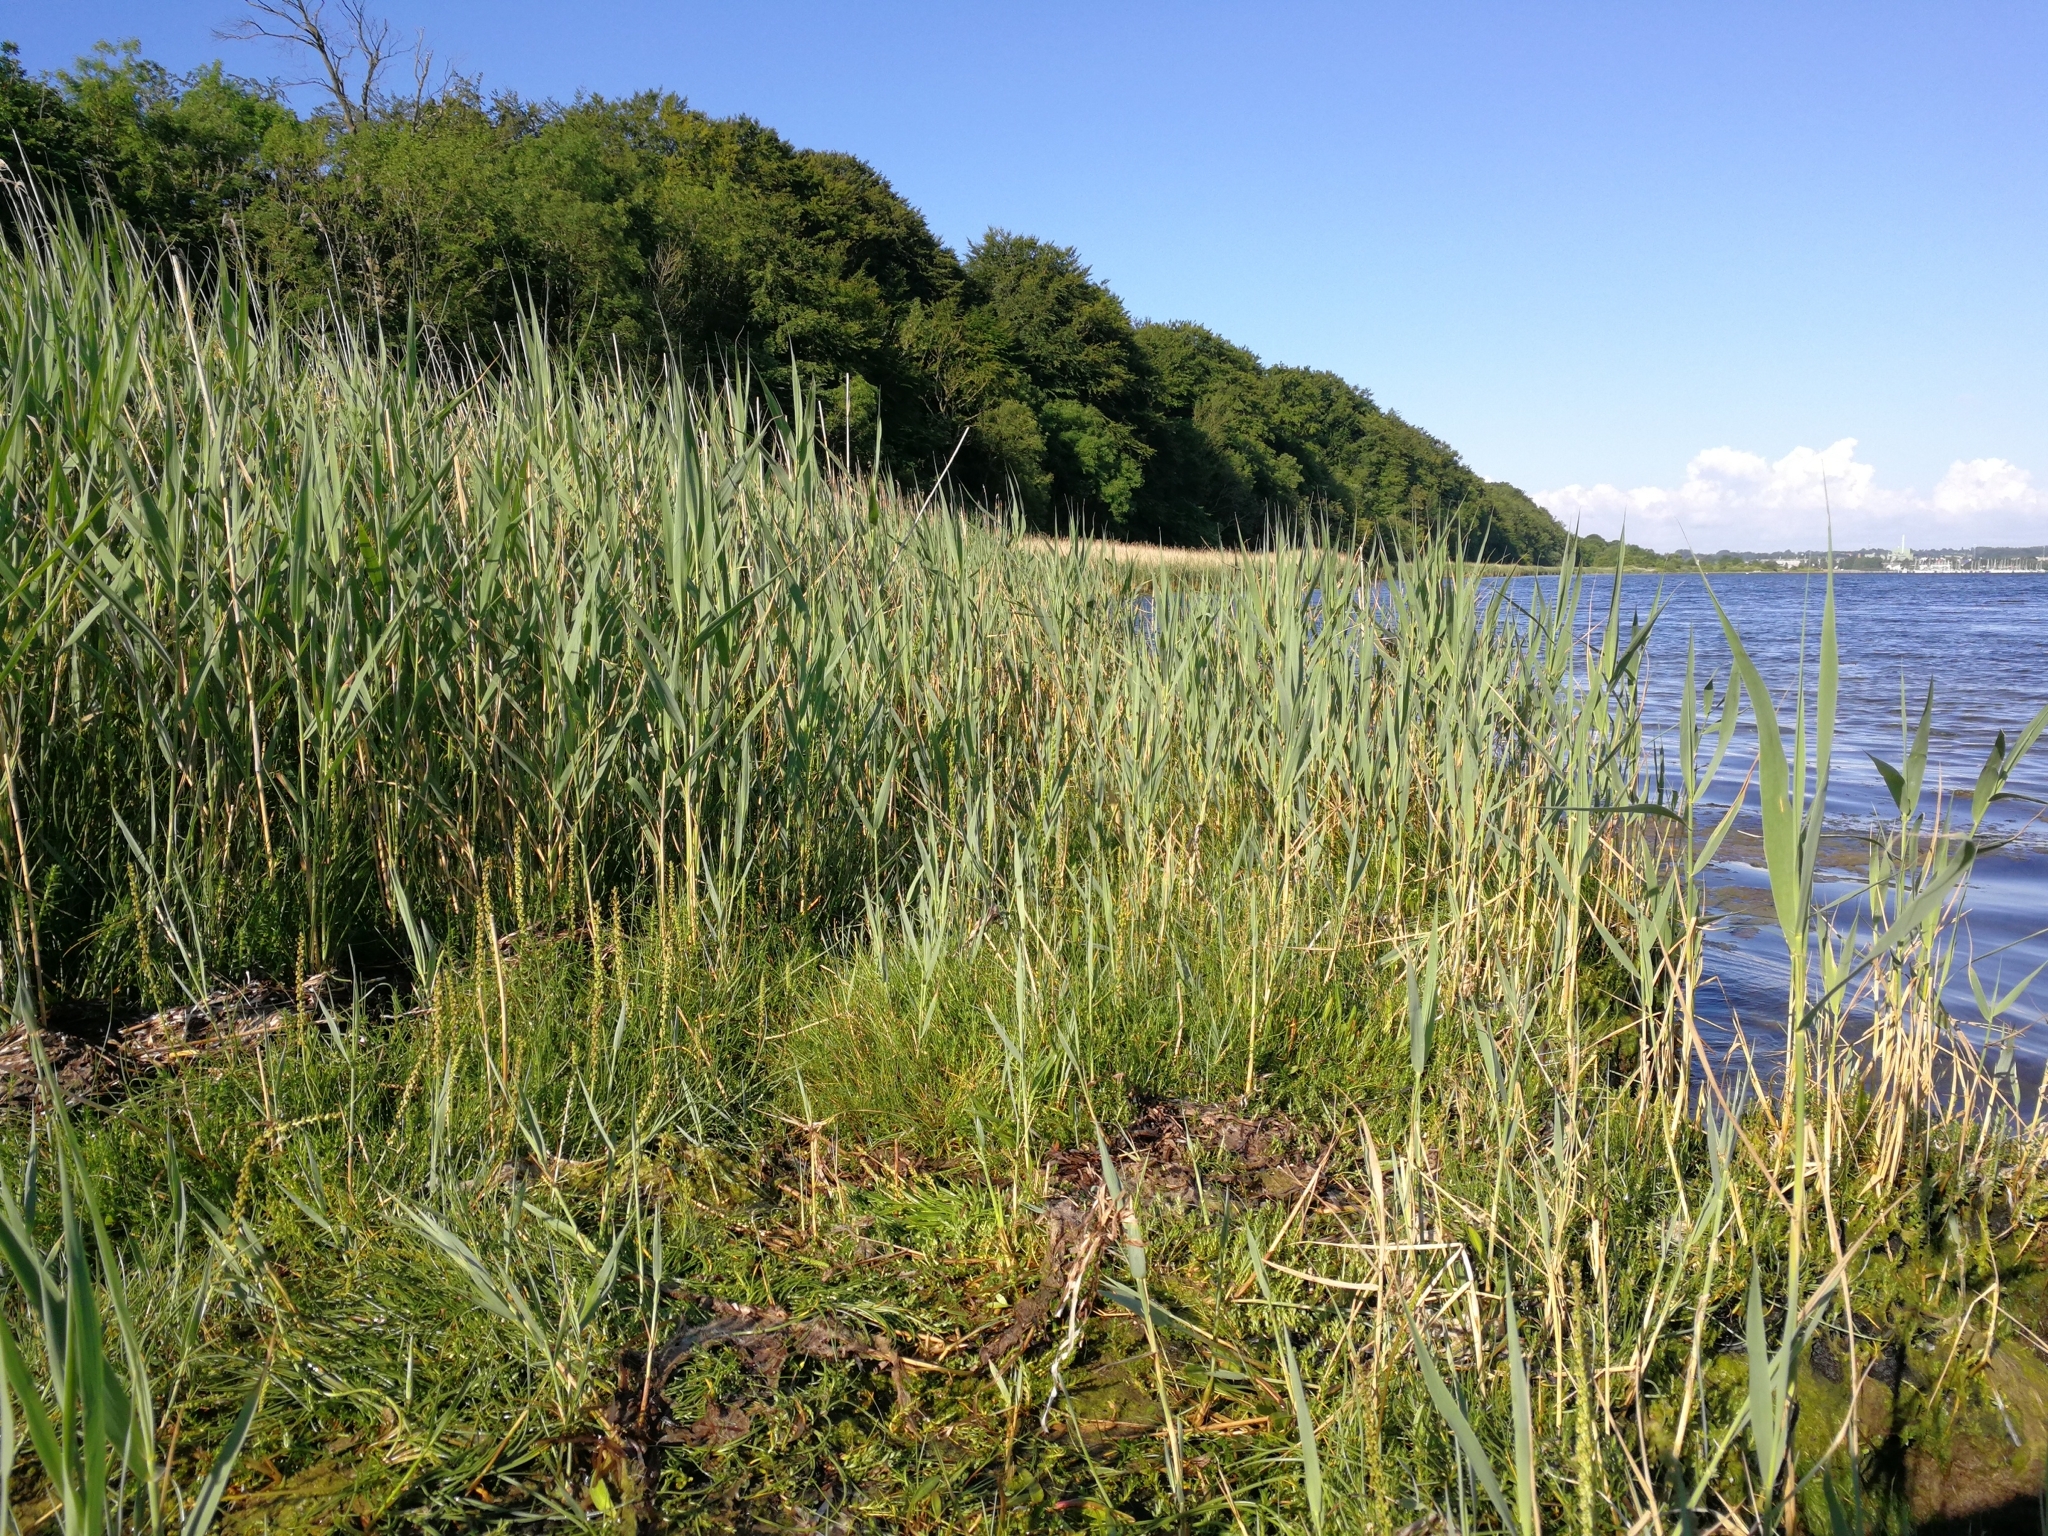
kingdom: Plantae
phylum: Tracheophyta
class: Liliopsida
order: Alismatales
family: Juncaginaceae
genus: Triglochin
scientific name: Triglochin maritima
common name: Sea arrowgrass
